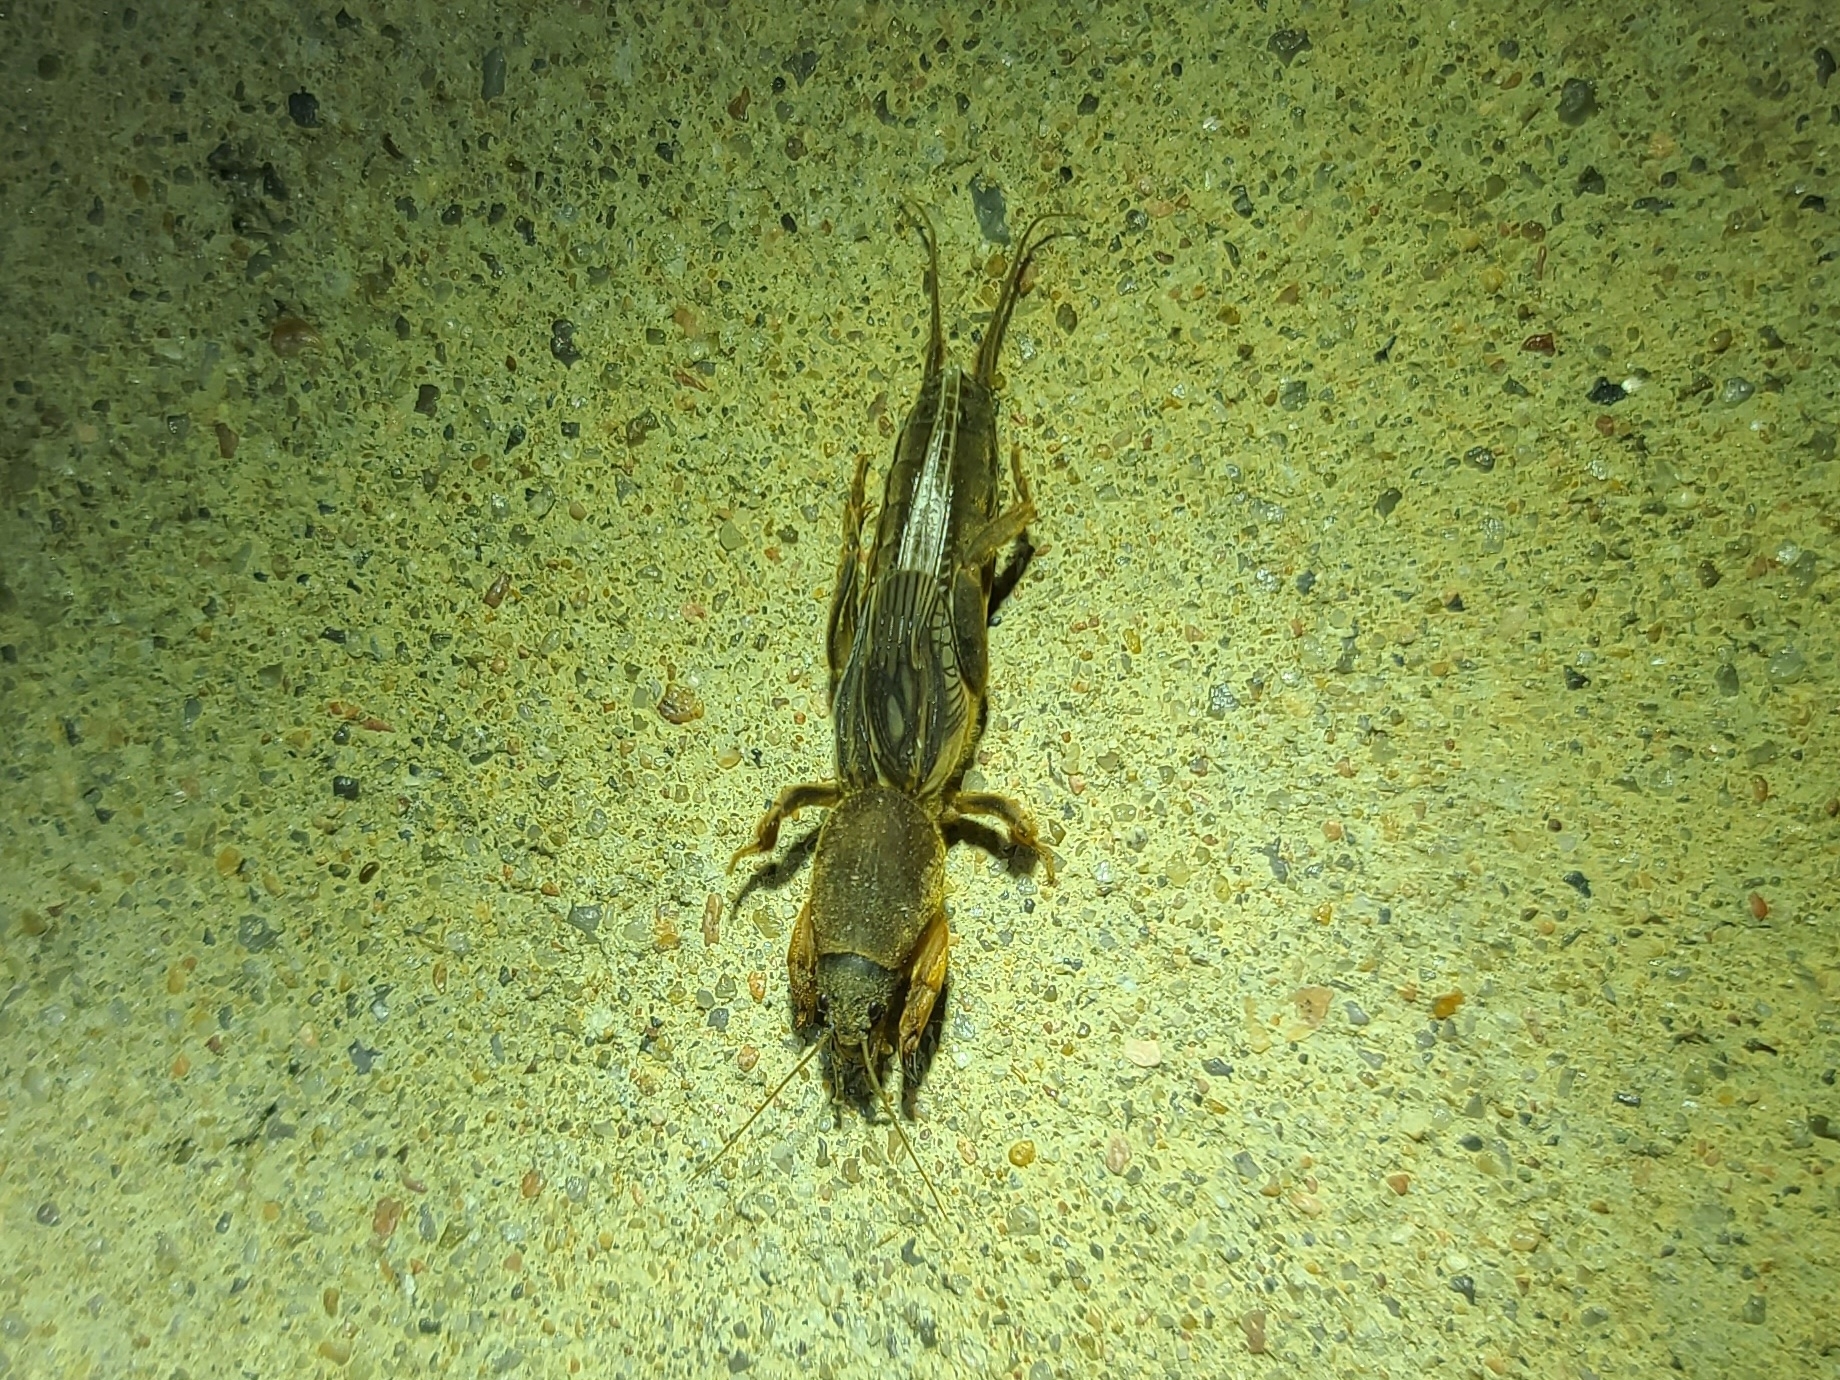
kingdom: Animalia
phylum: Arthropoda
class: Insecta
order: Orthoptera
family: Gryllotalpidae
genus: Neocurtilla
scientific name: Neocurtilla hexadactyla
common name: Northern mole cricket
